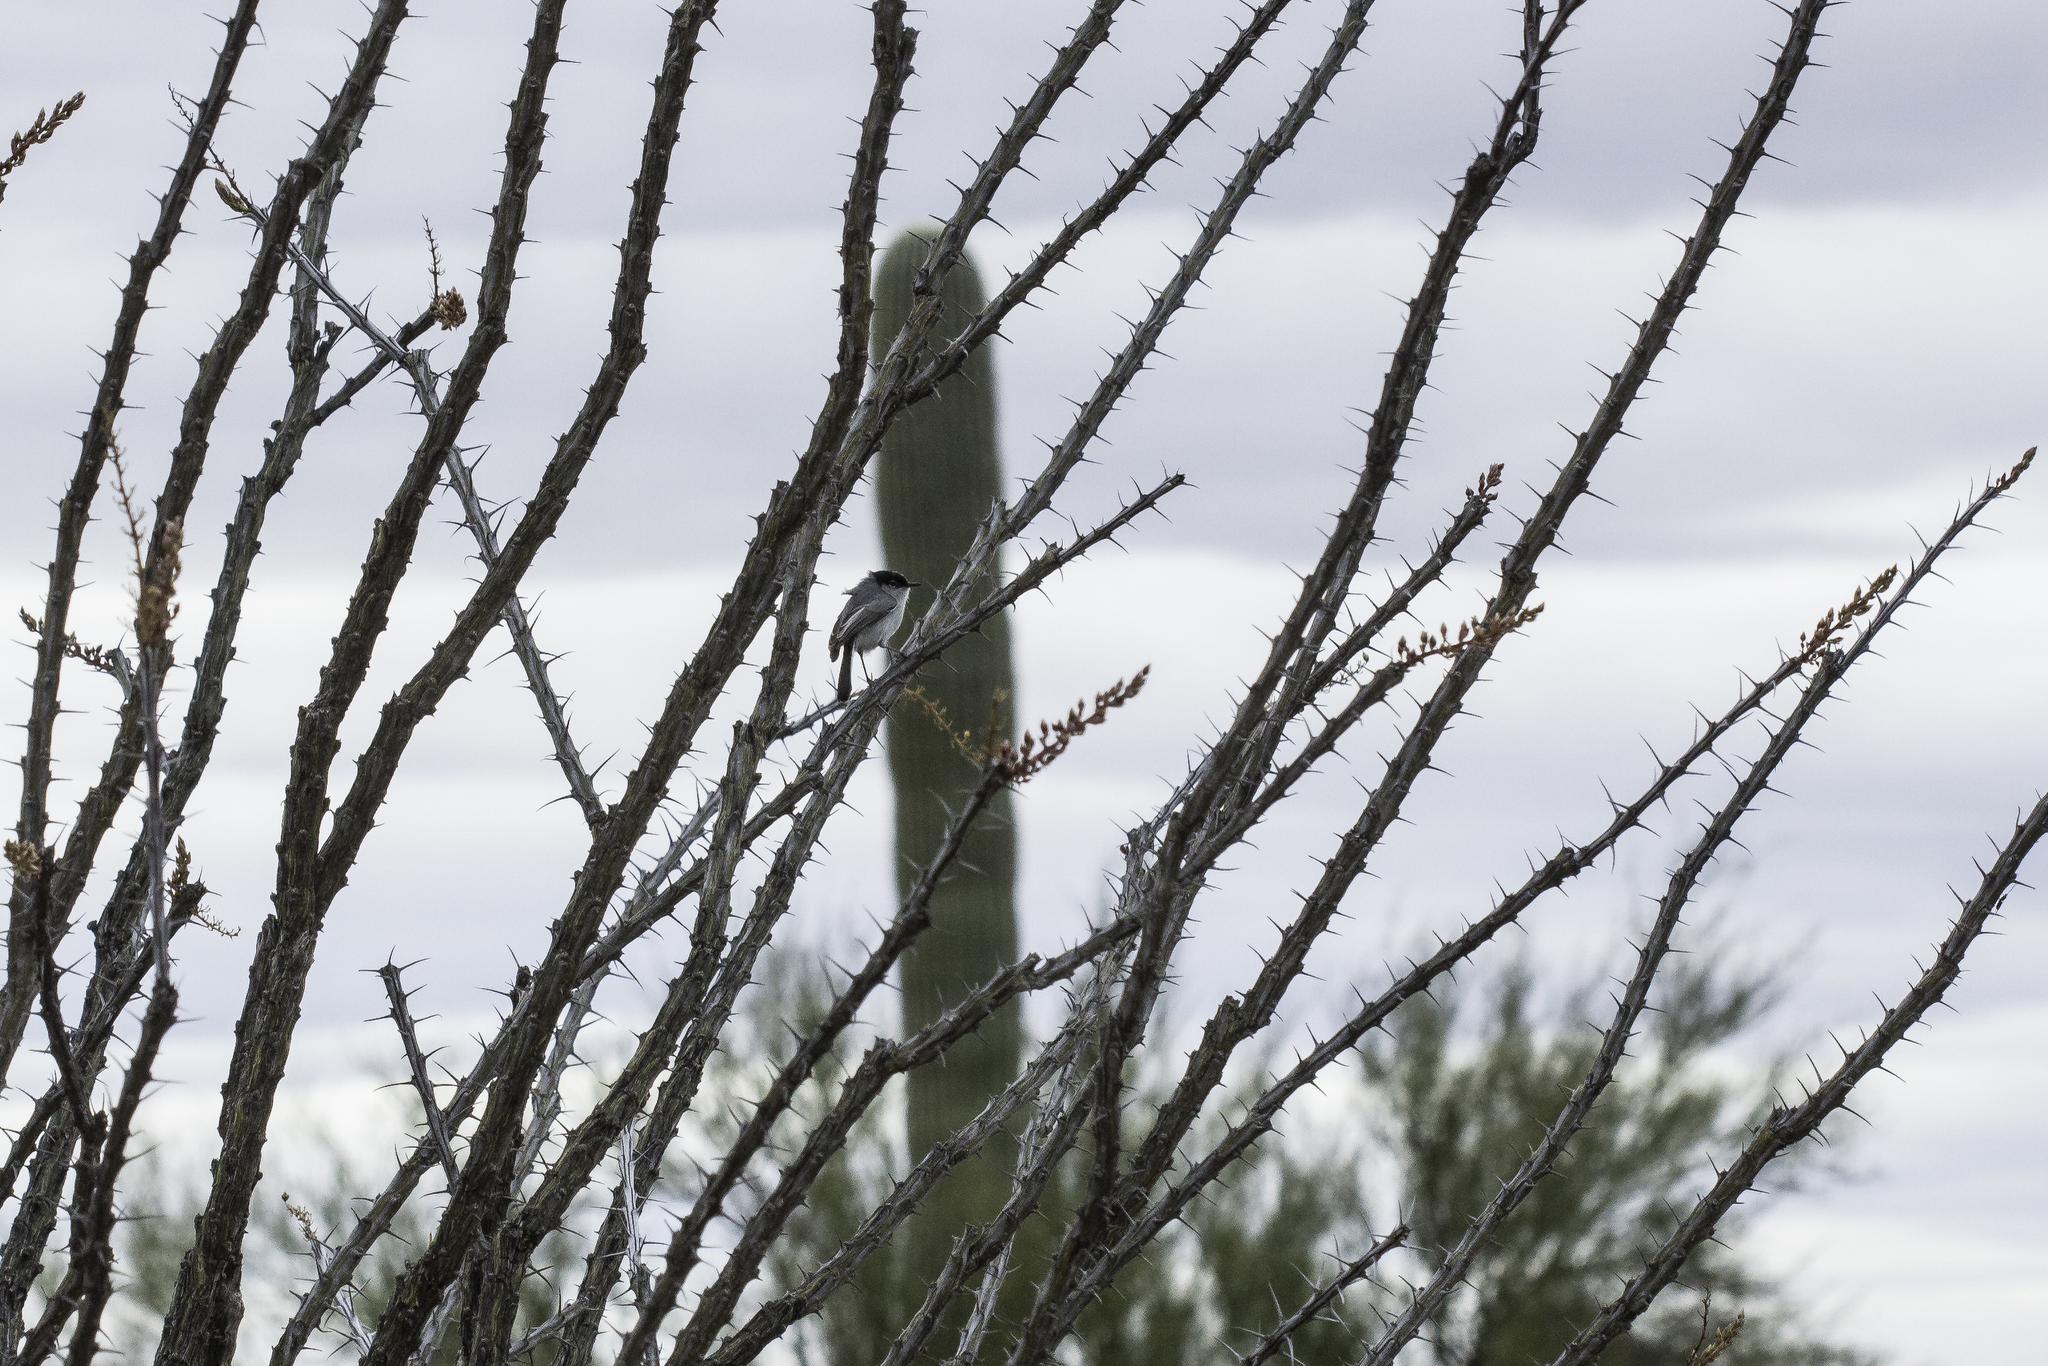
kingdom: Animalia
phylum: Chordata
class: Aves
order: Passeriformes
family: Polioptilidae
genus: Polioptila
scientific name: Polioptila melanura
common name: Black-tailed gnatcatcher
